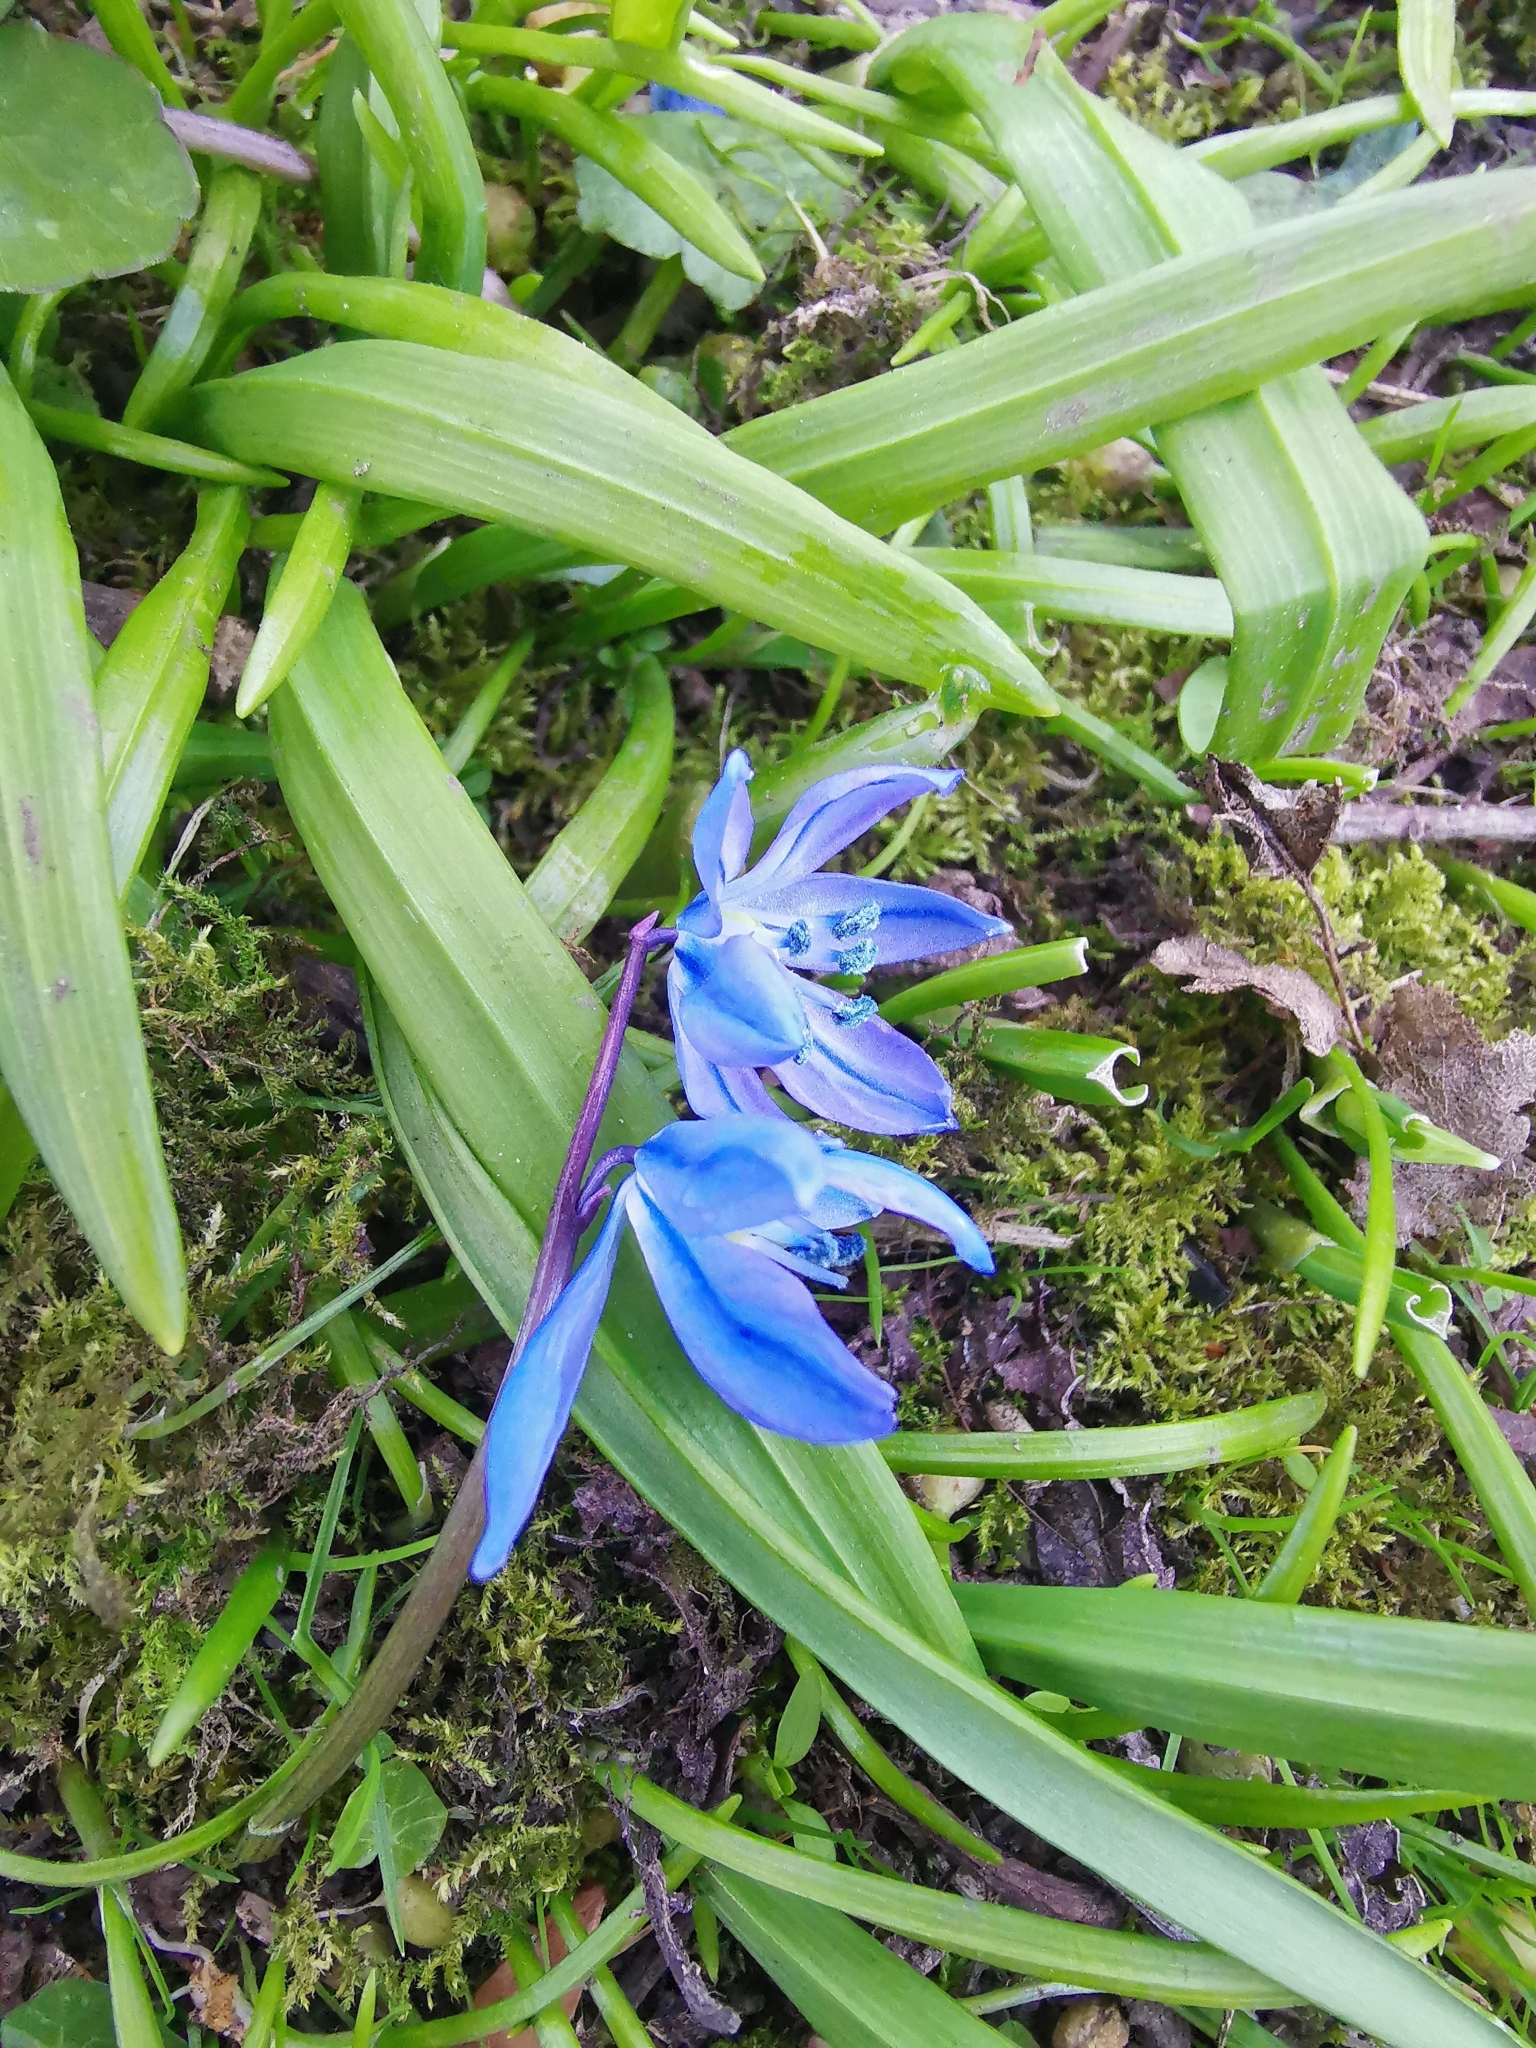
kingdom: Plantae
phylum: Tracheophyta
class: Liliopsida
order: Asparagales
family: Asparagaceae
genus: Scilla
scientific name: Scilla siberica
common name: Siberian squill
